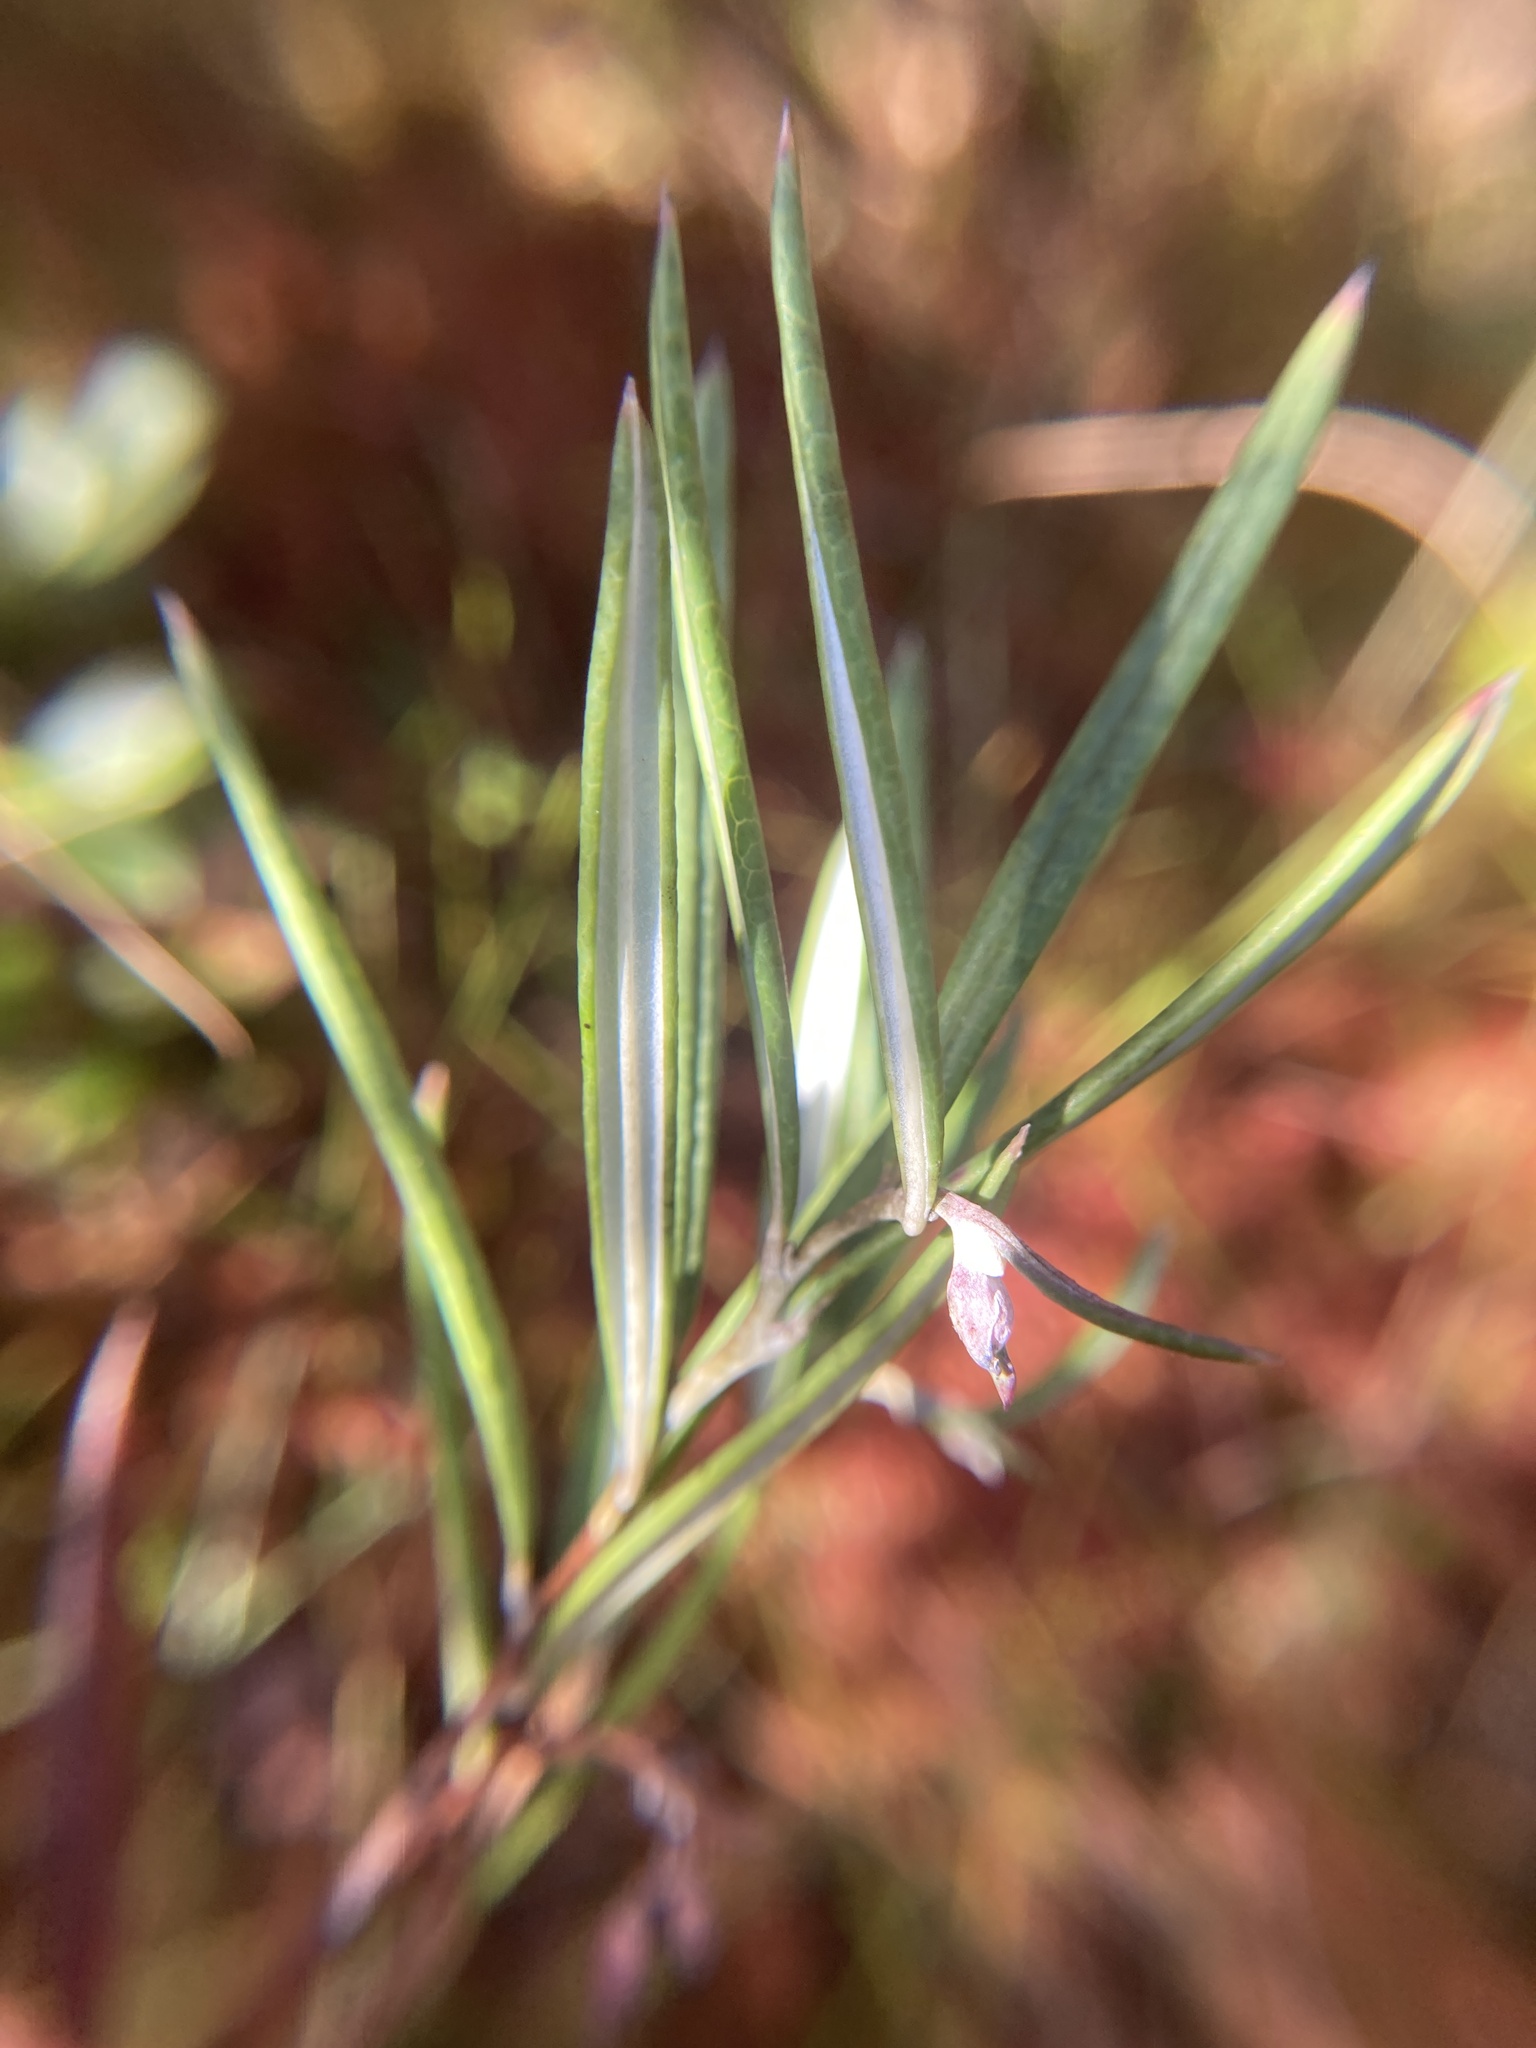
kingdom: Plantae
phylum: Tracheophyta
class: Magnoliopsida
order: Ericales
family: Ericaceae
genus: Andromeda
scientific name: Andromeda polifolia
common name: Bog-rosemary
